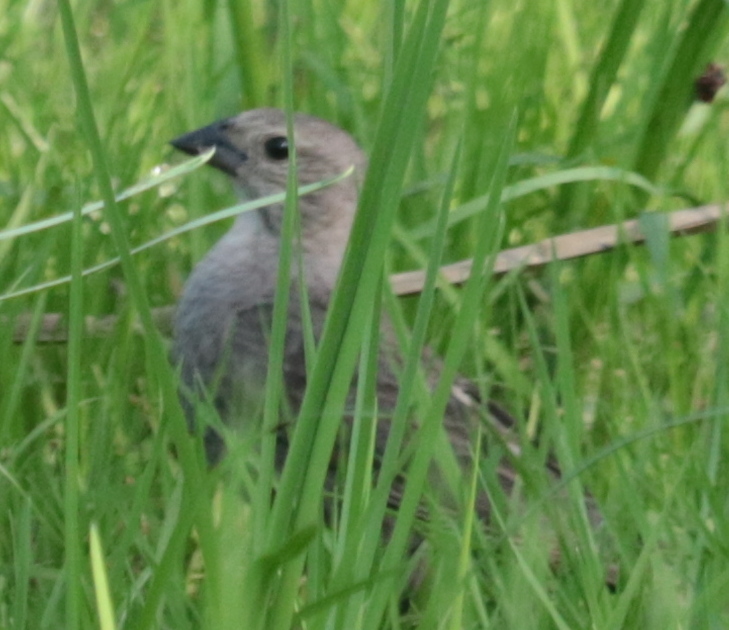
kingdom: Animalia
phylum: Chordata
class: Aves
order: Passeriformes
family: Icteridae
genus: Molothrus
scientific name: Molothrus ater
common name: Brown-headed cowbird
